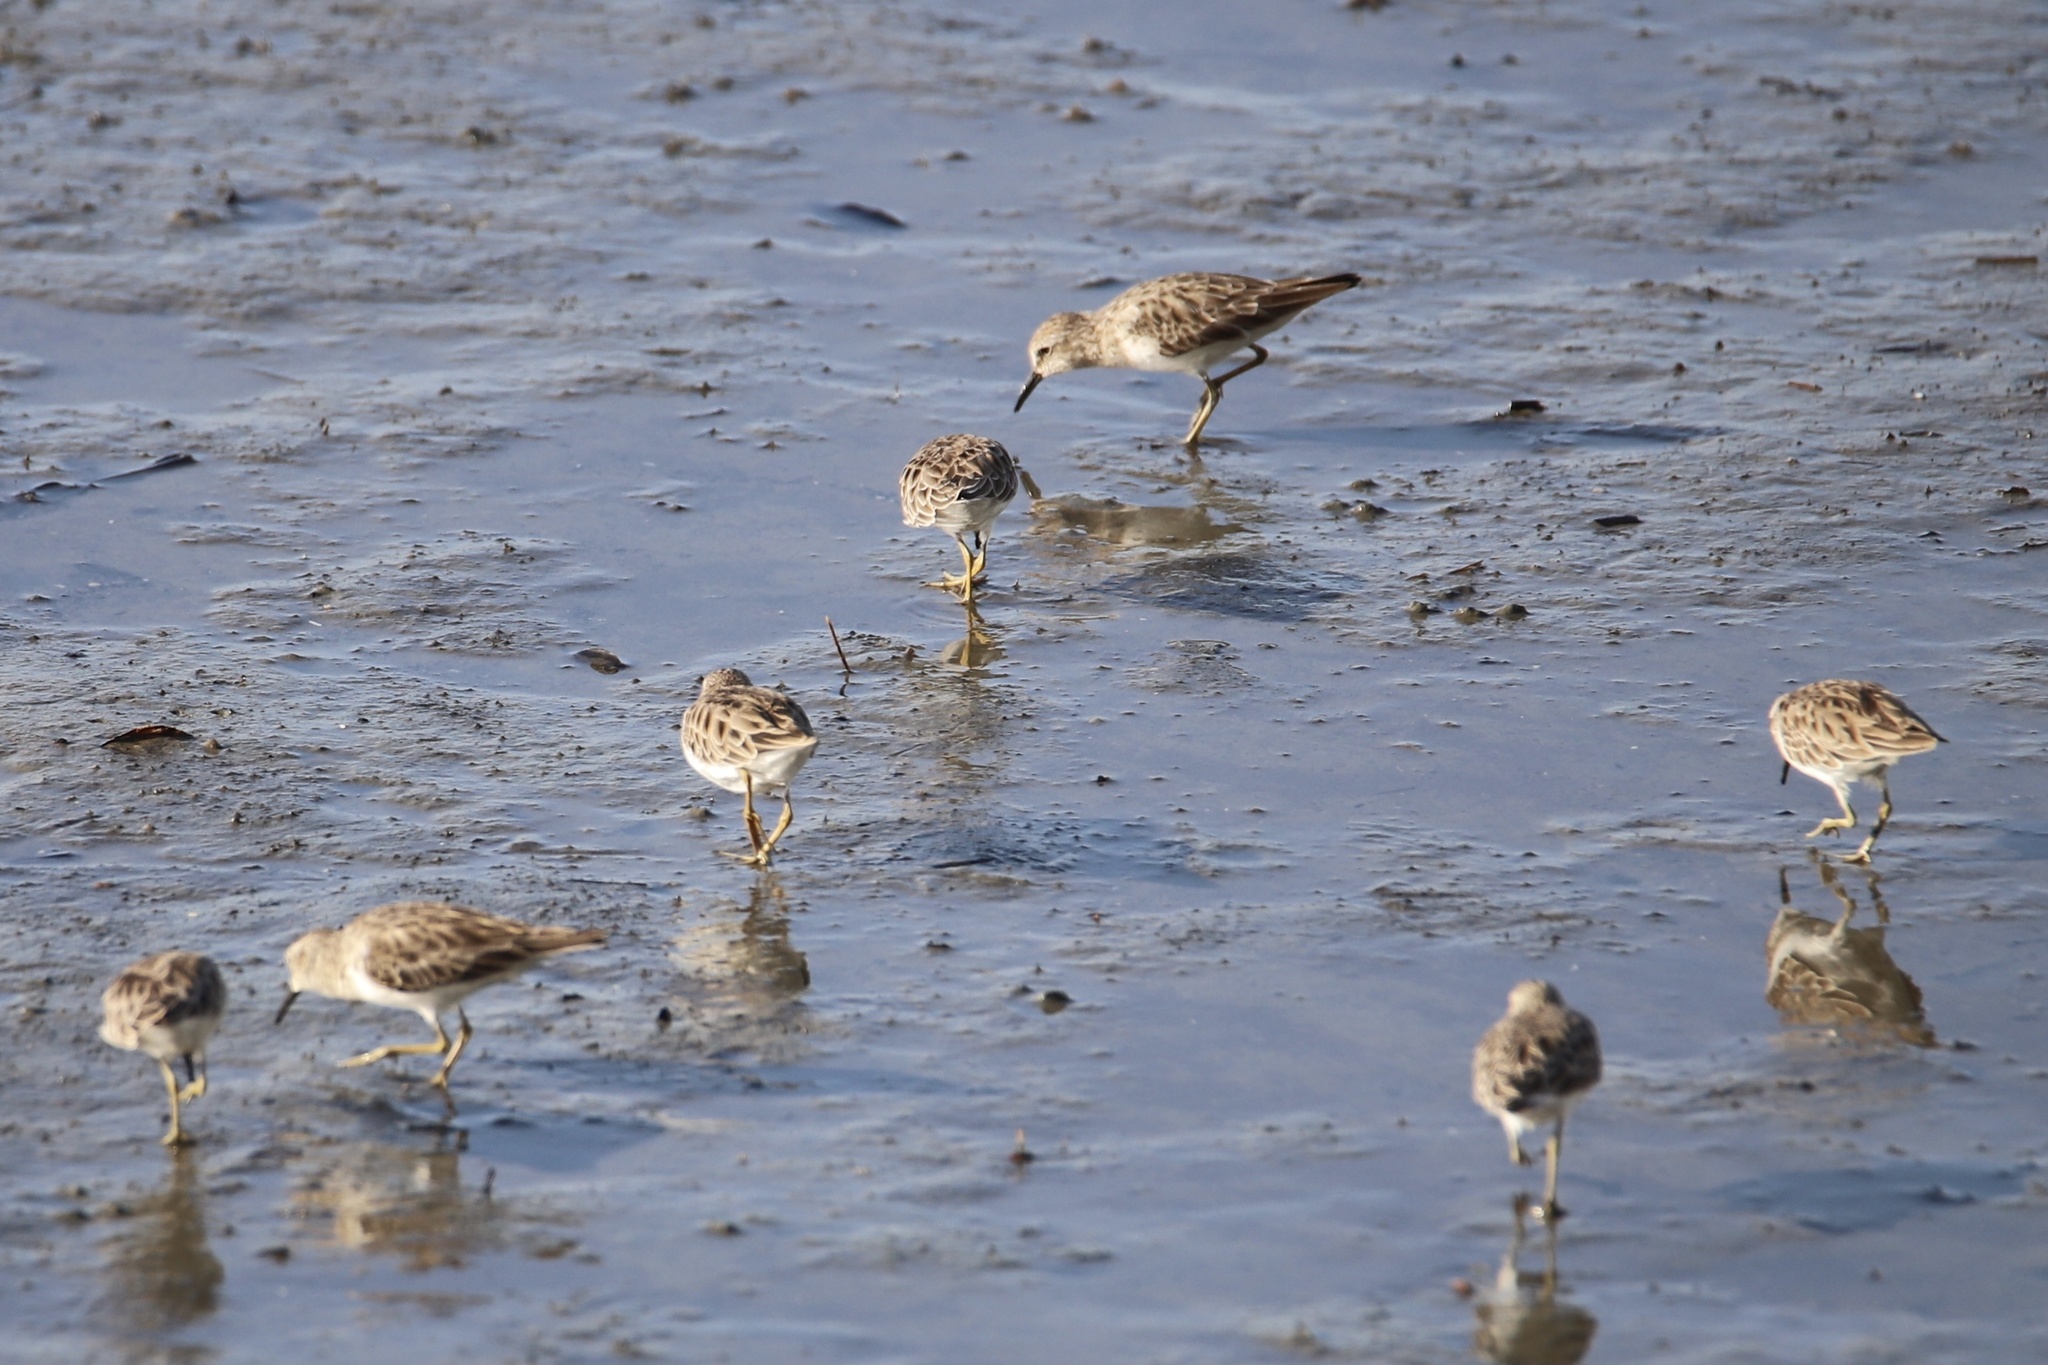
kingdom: Animalia
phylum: Chordata
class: Aves
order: Charadriiformes
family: Scolopacidae
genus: Calidris
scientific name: Calidris minutilla
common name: Least sandpiper
